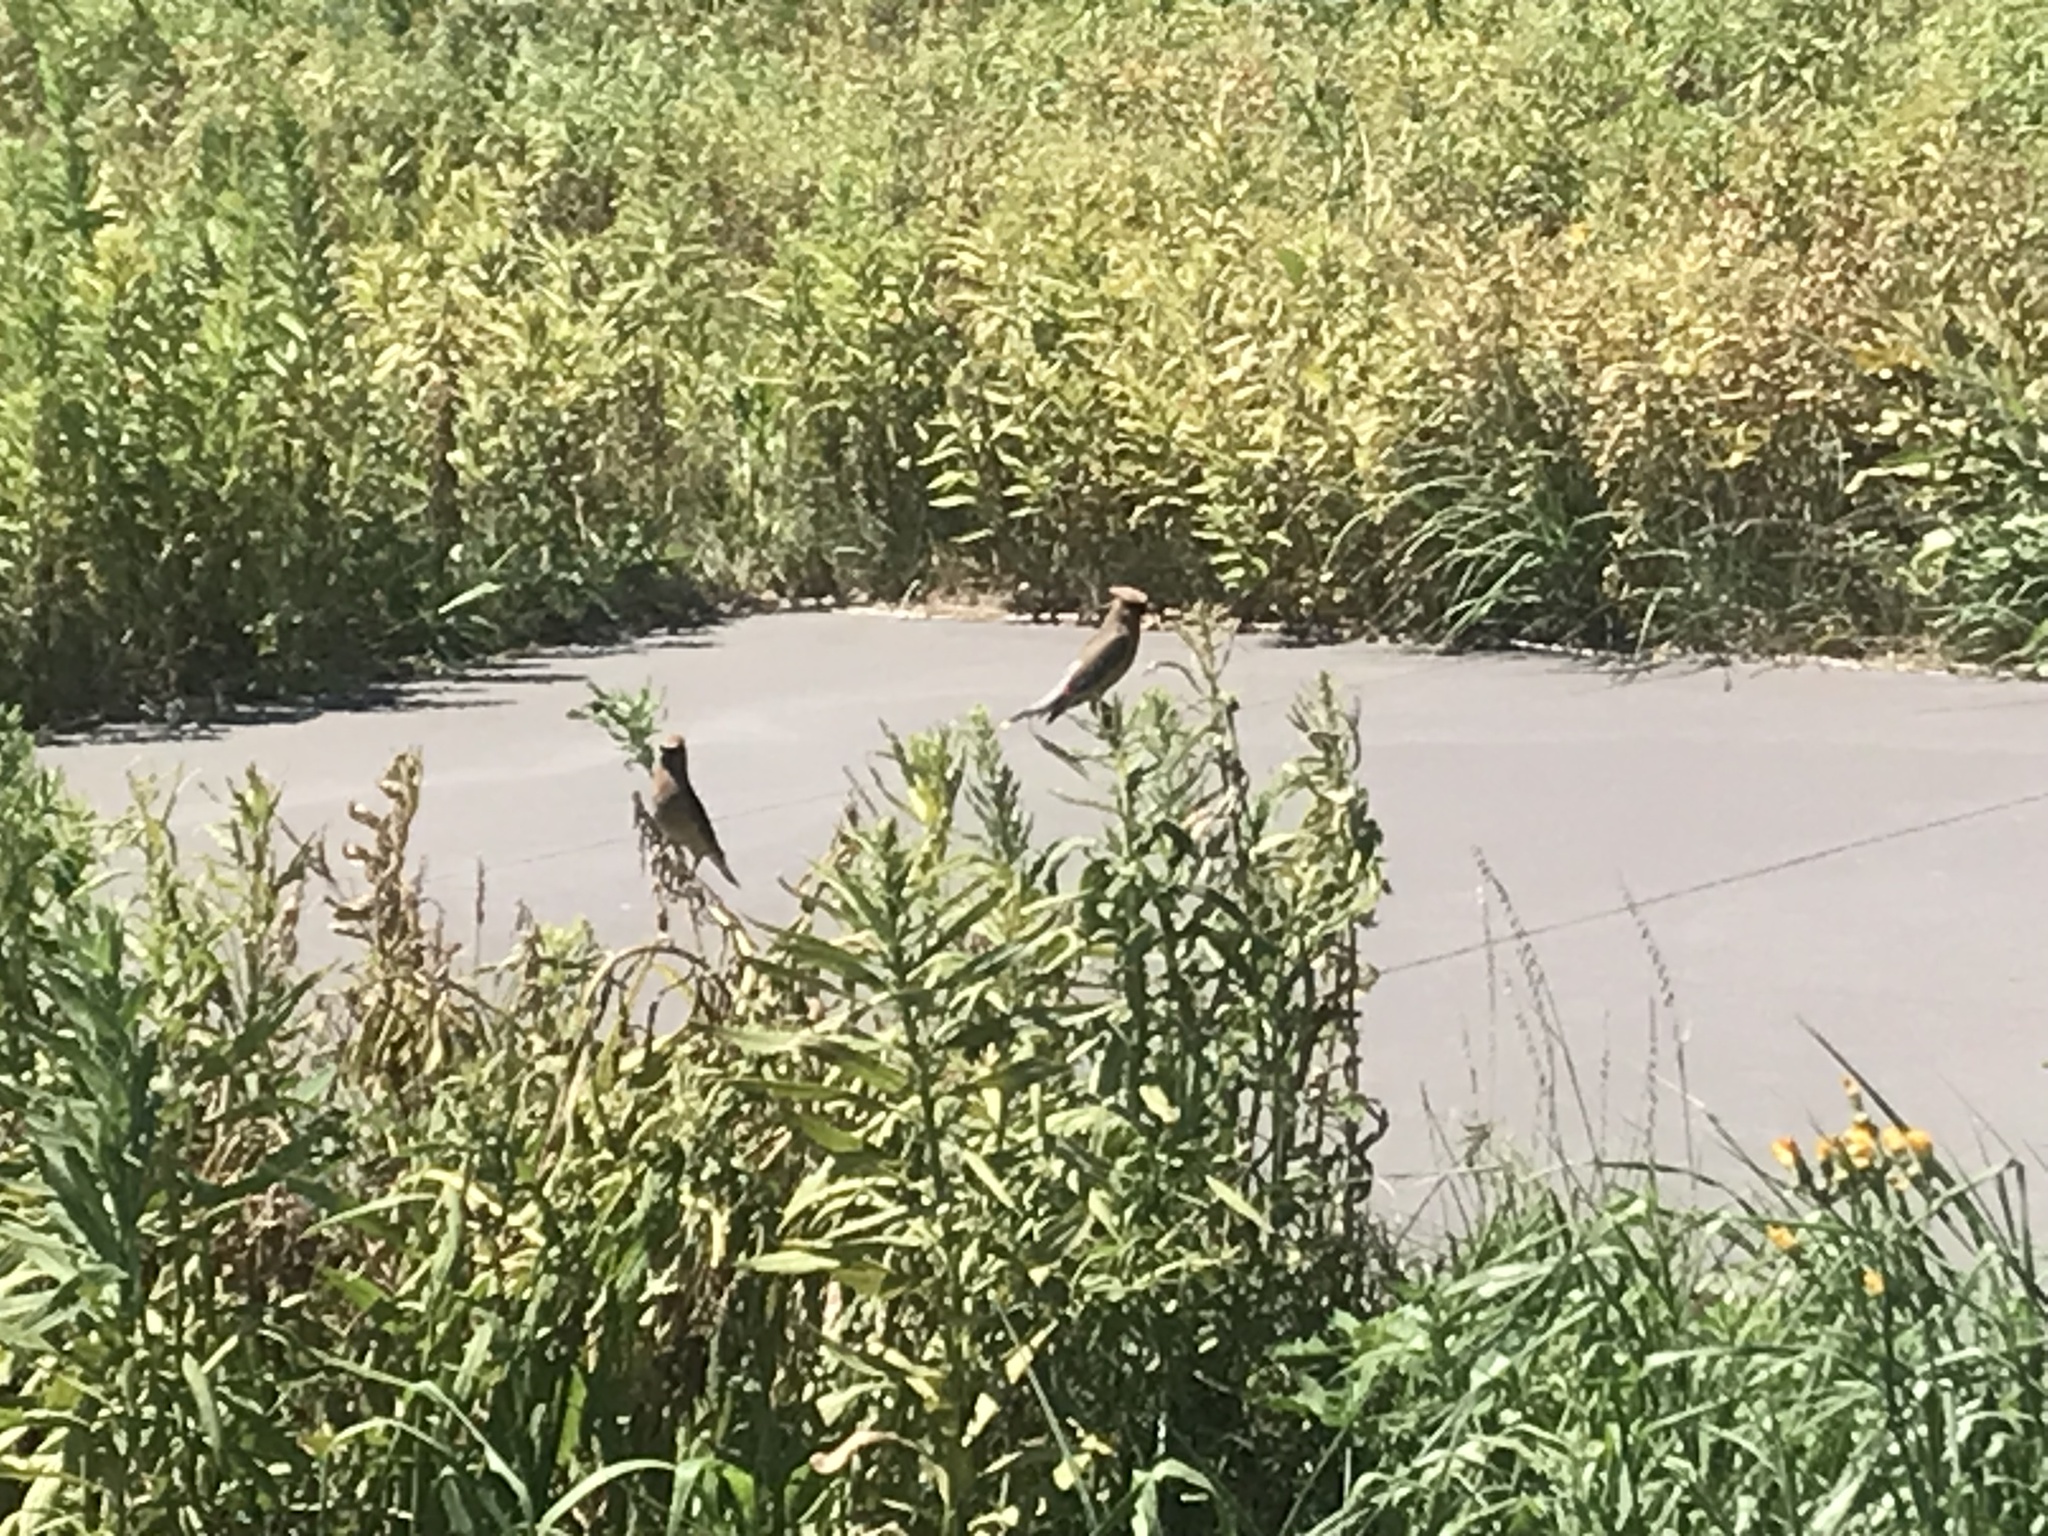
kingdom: Animalia
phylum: Chordata
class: Aves
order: Passeriformes
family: Bombycillidae
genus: Bombycilla
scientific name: Bombycilla cedrorum
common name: Cedar waxwing
